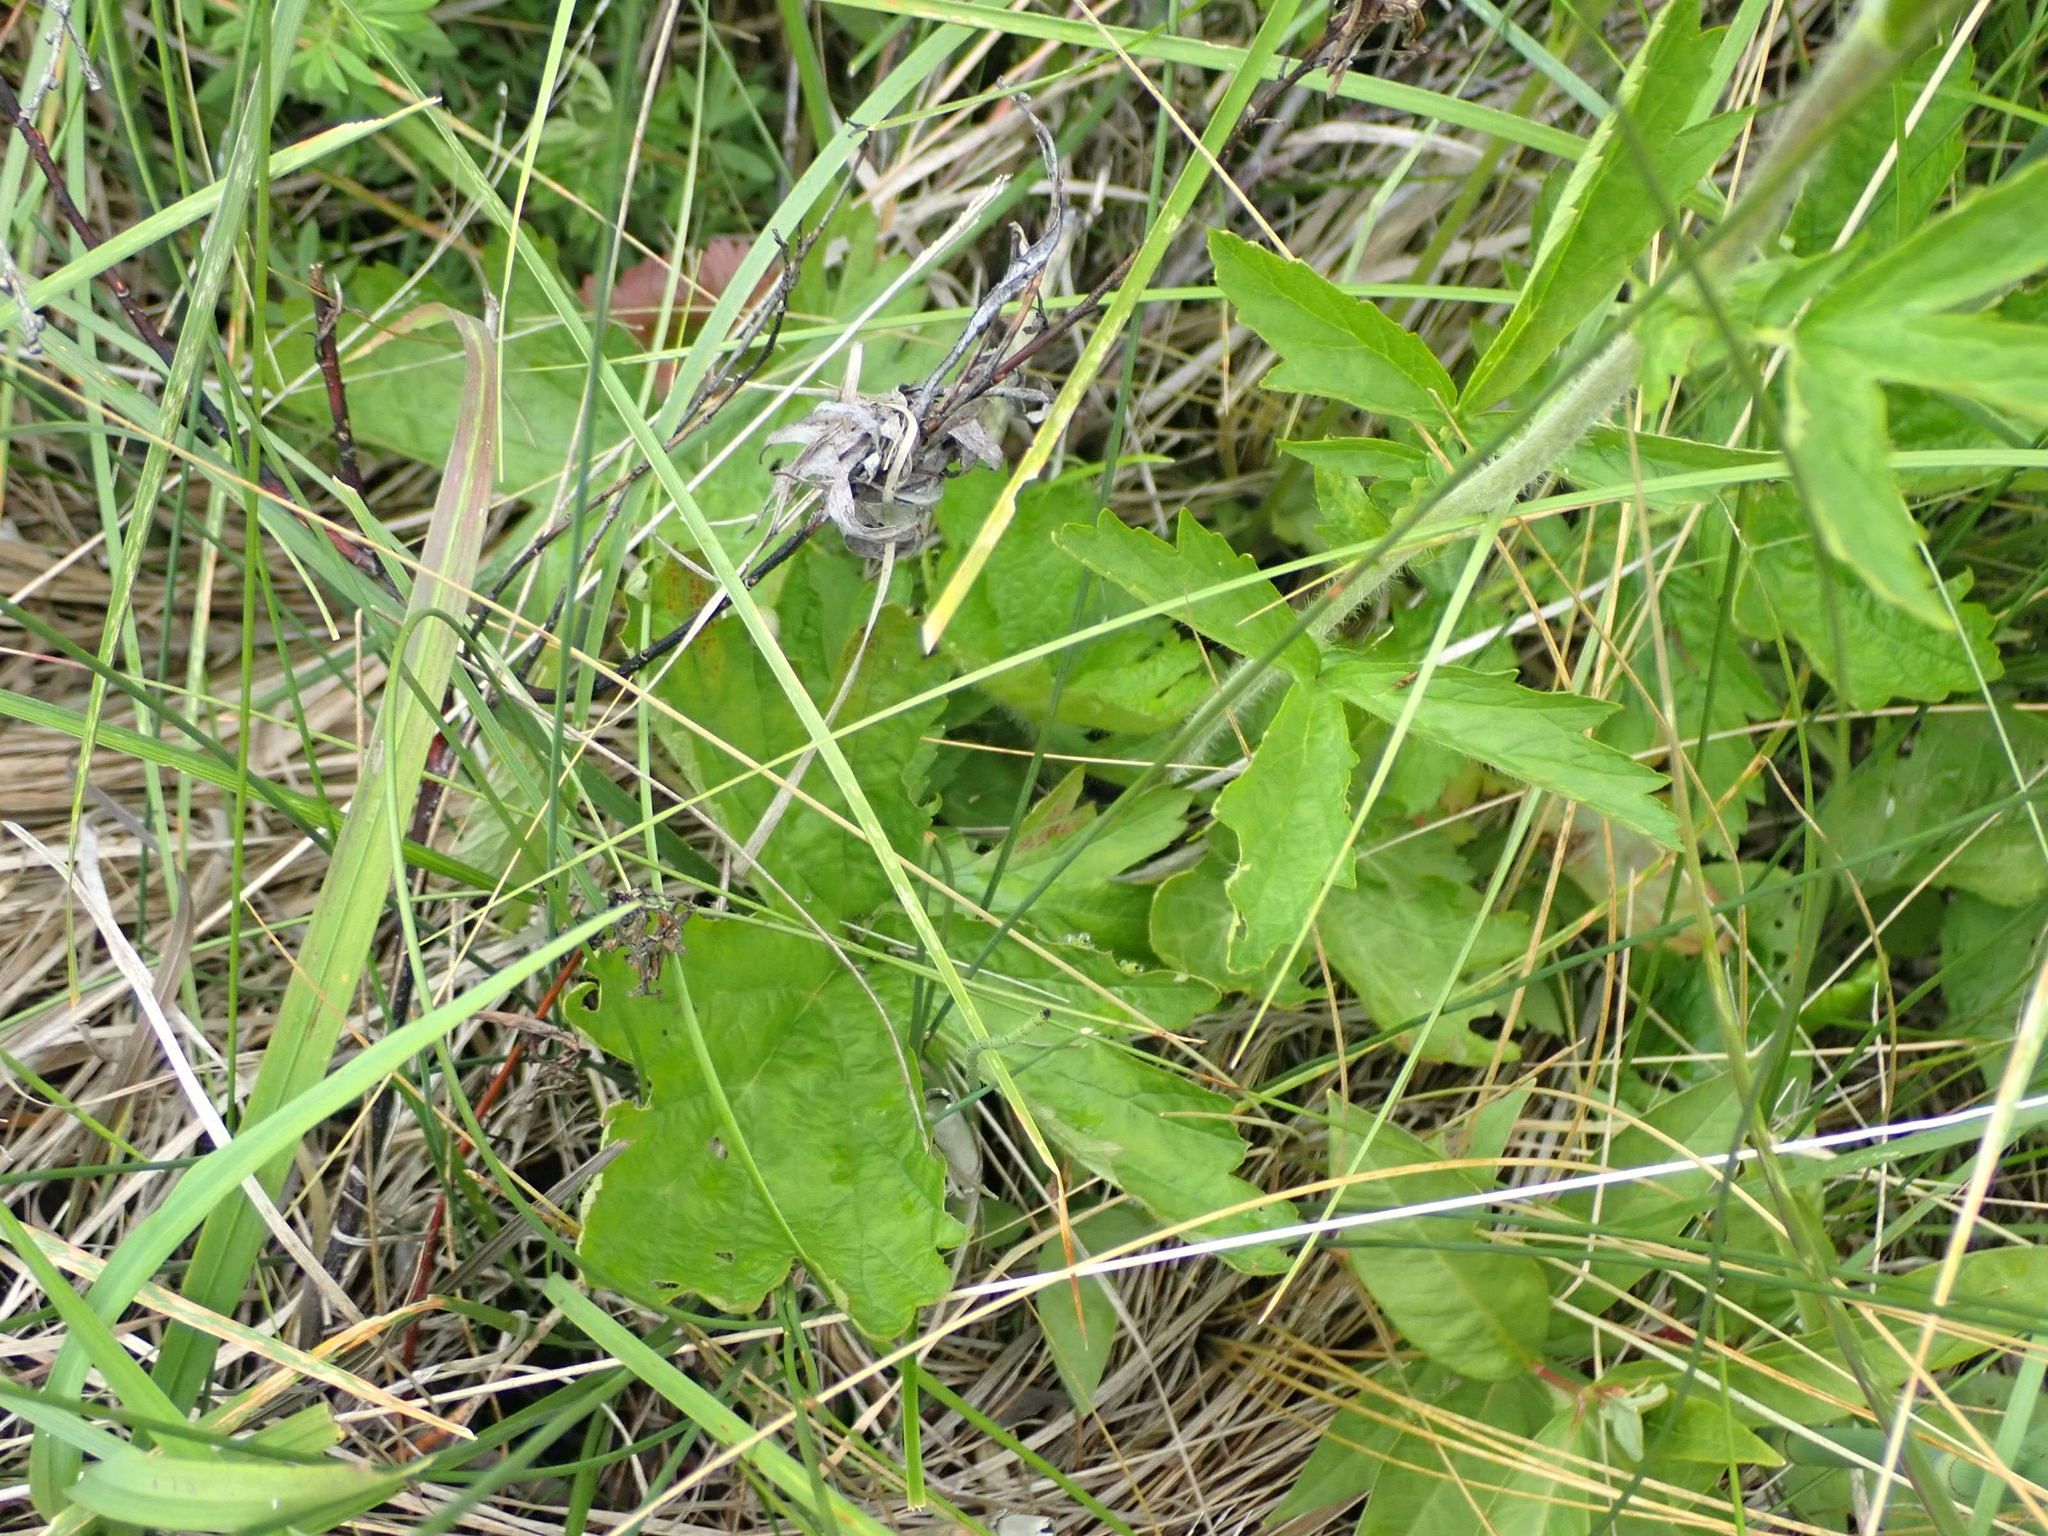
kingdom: Plantae
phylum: Tracheophyta
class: Magnoliopsida
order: Rosales
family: Rosaceae
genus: Geum
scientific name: Geum aleppicum
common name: Yellow avens
